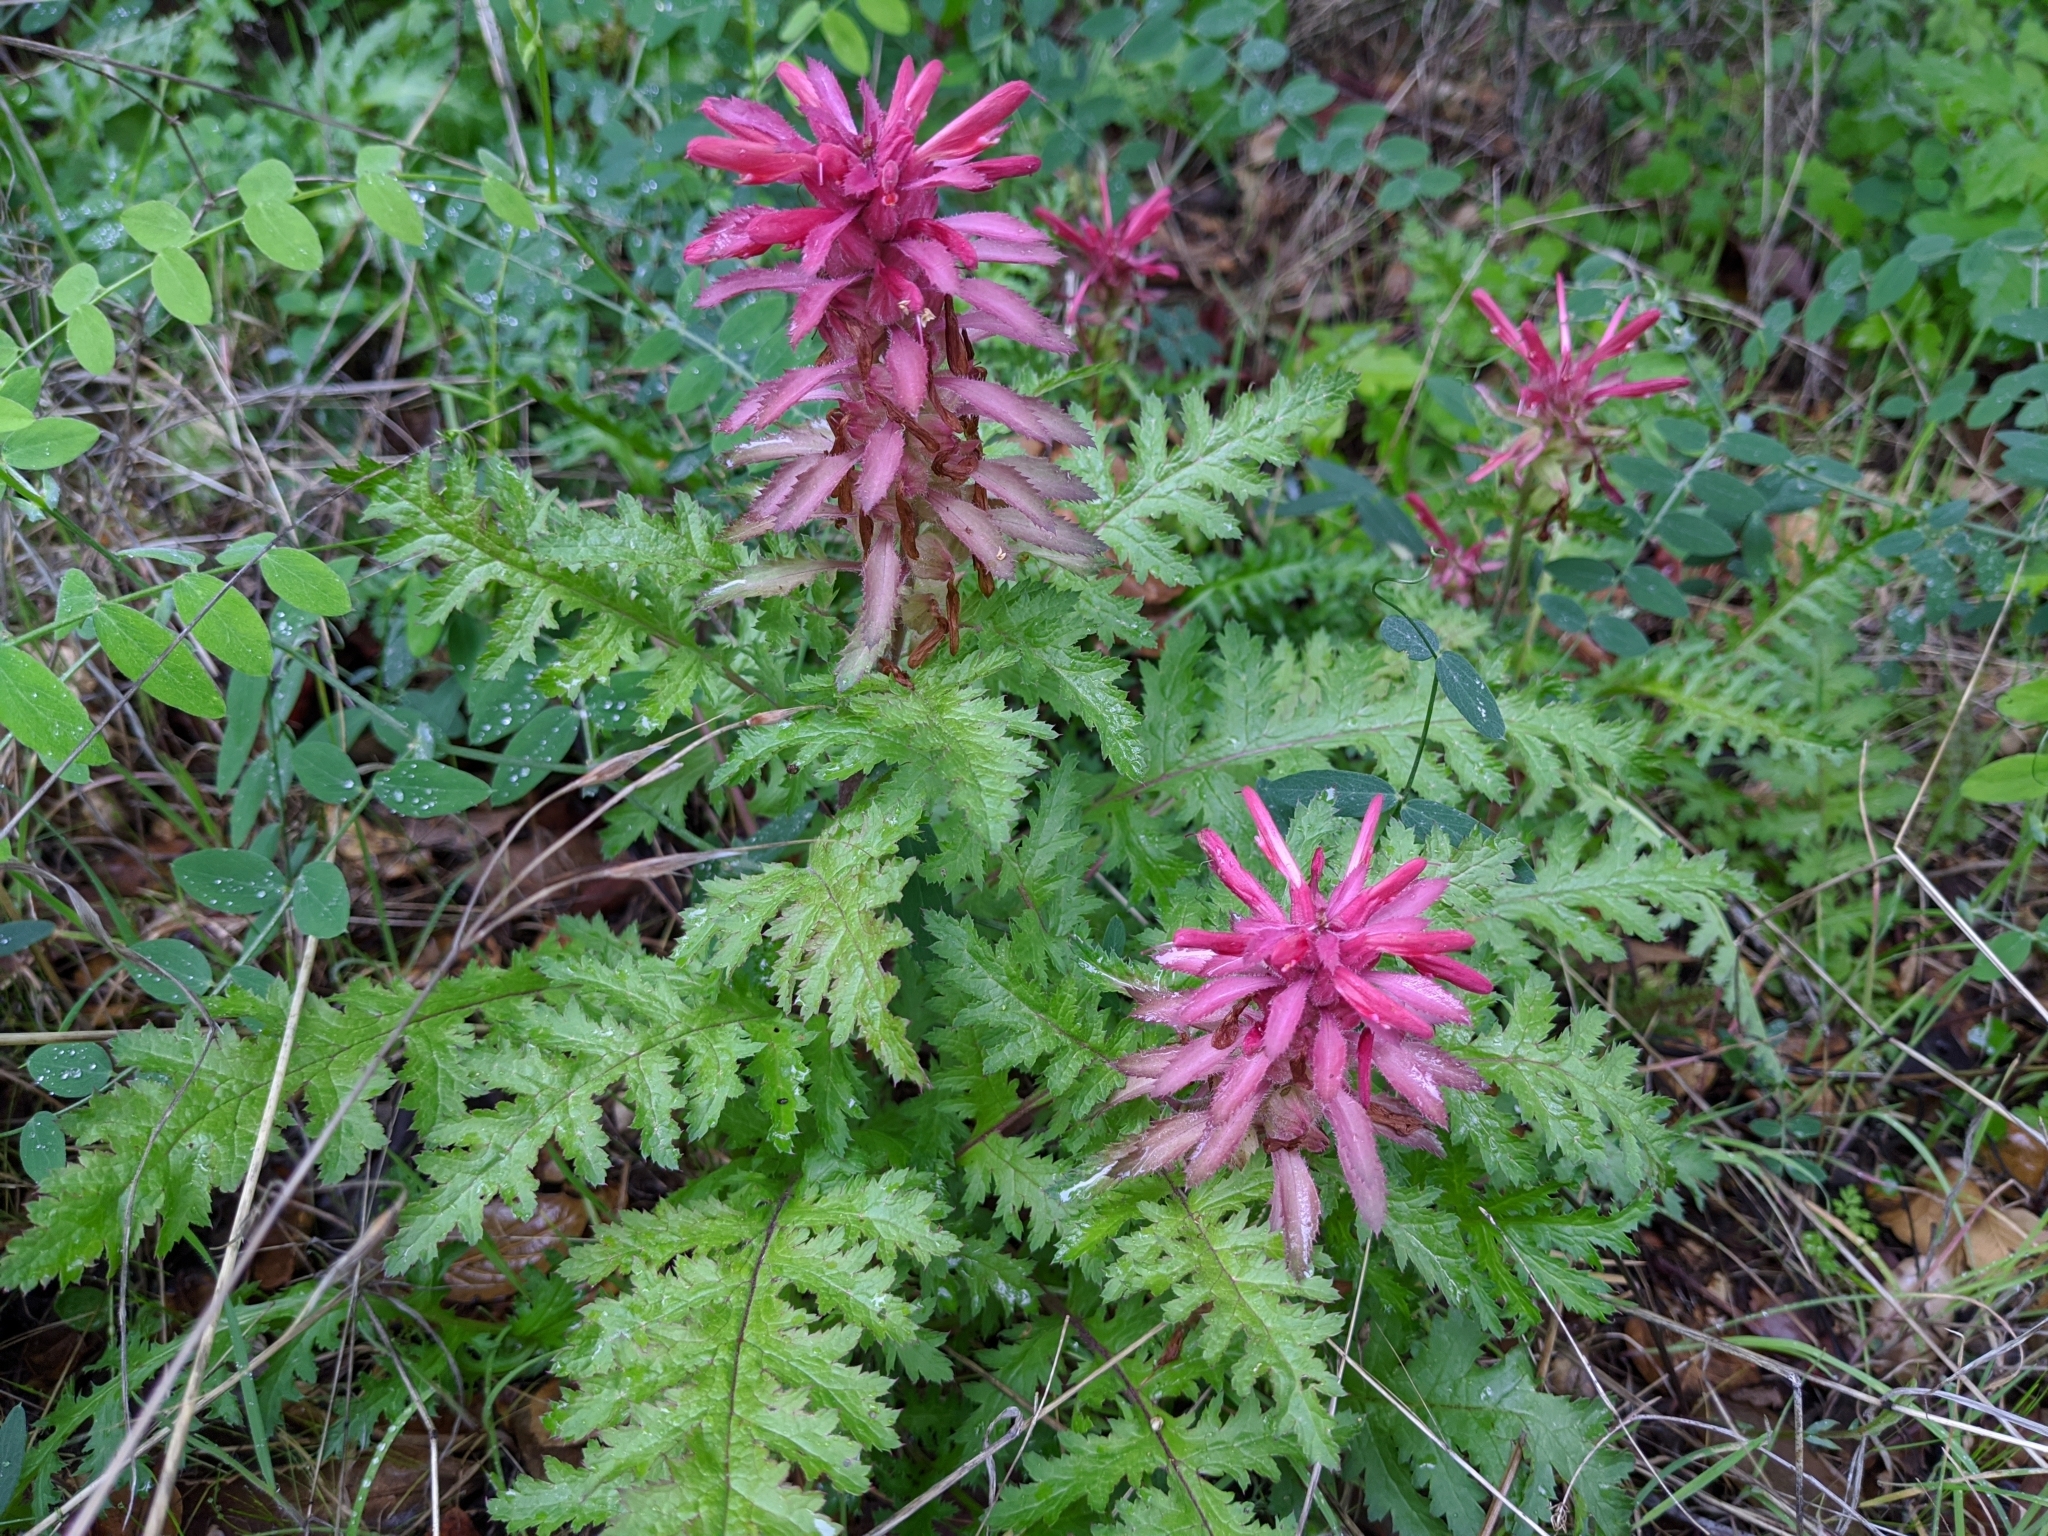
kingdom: Plantae
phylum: Tracheophyta
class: Magnoliopsida
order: Lamiales
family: Orobanchaceae
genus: Pedicularis
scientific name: Pedicularis densiflora
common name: Indian warrior
